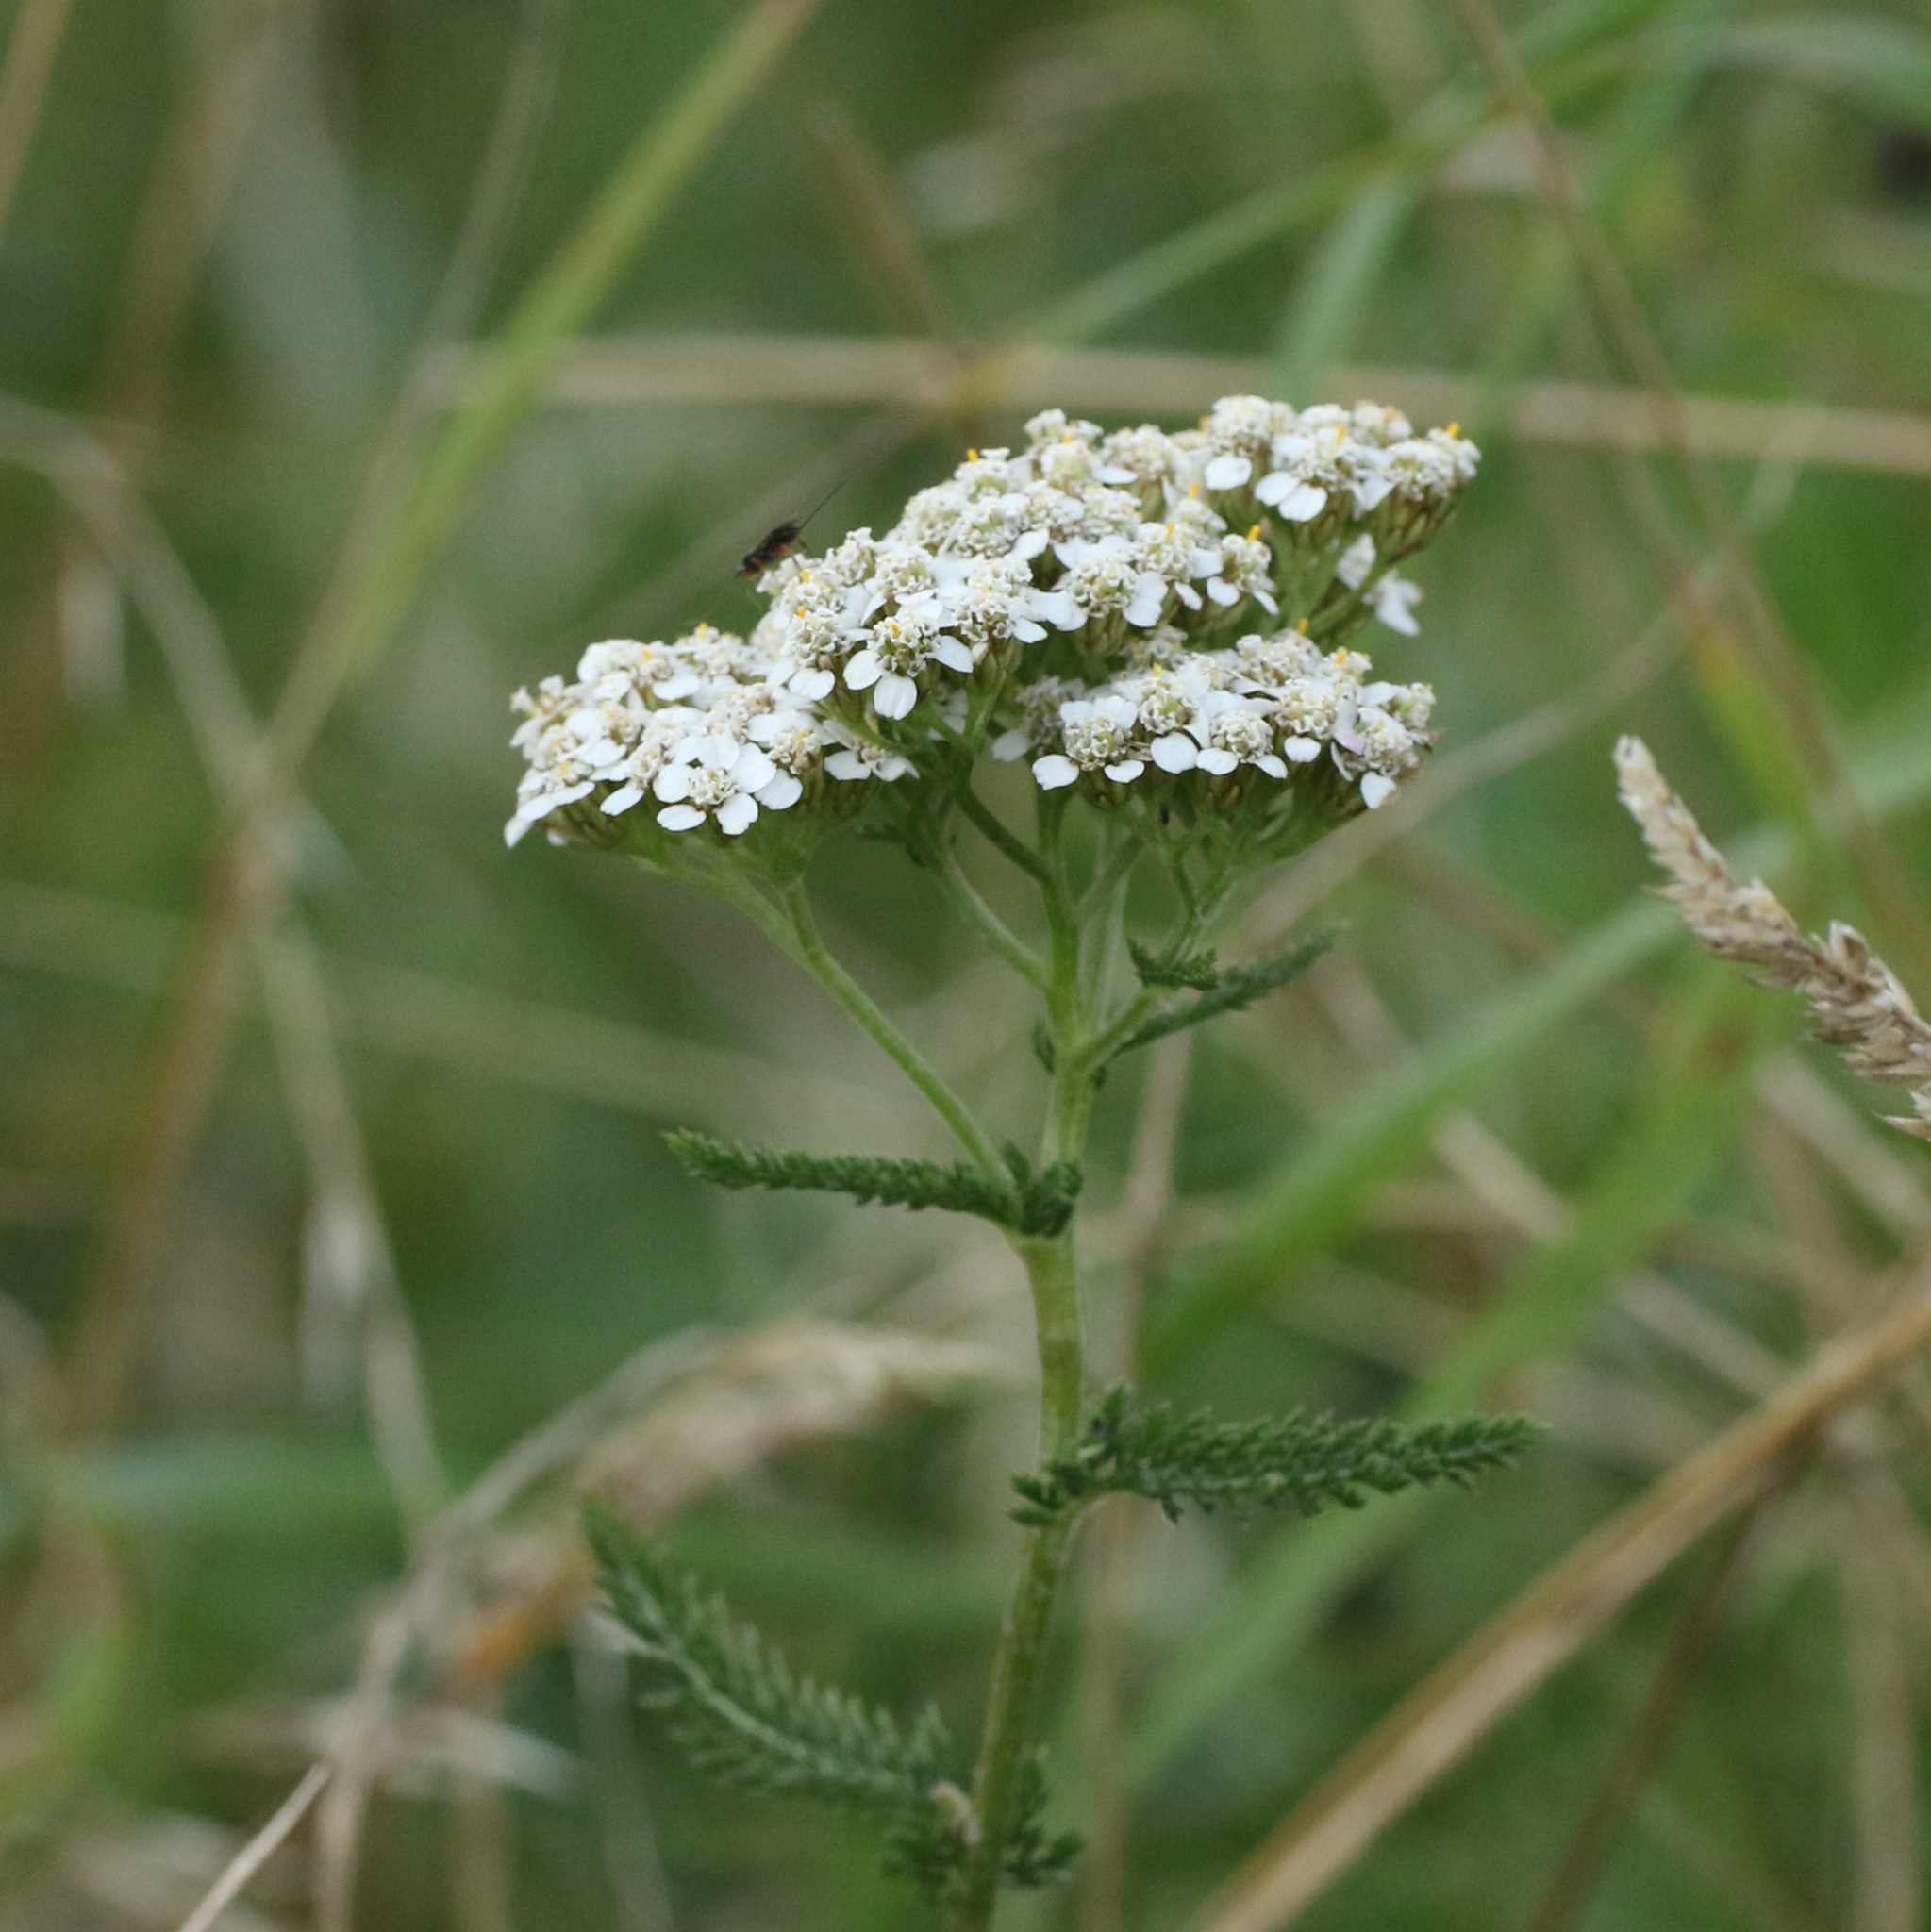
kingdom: Plantae
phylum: Tracheophyta
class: Magnoliopsida
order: Asterales
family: Asteraceae
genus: Achillea
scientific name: Achillea millefolium
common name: Yarrow
